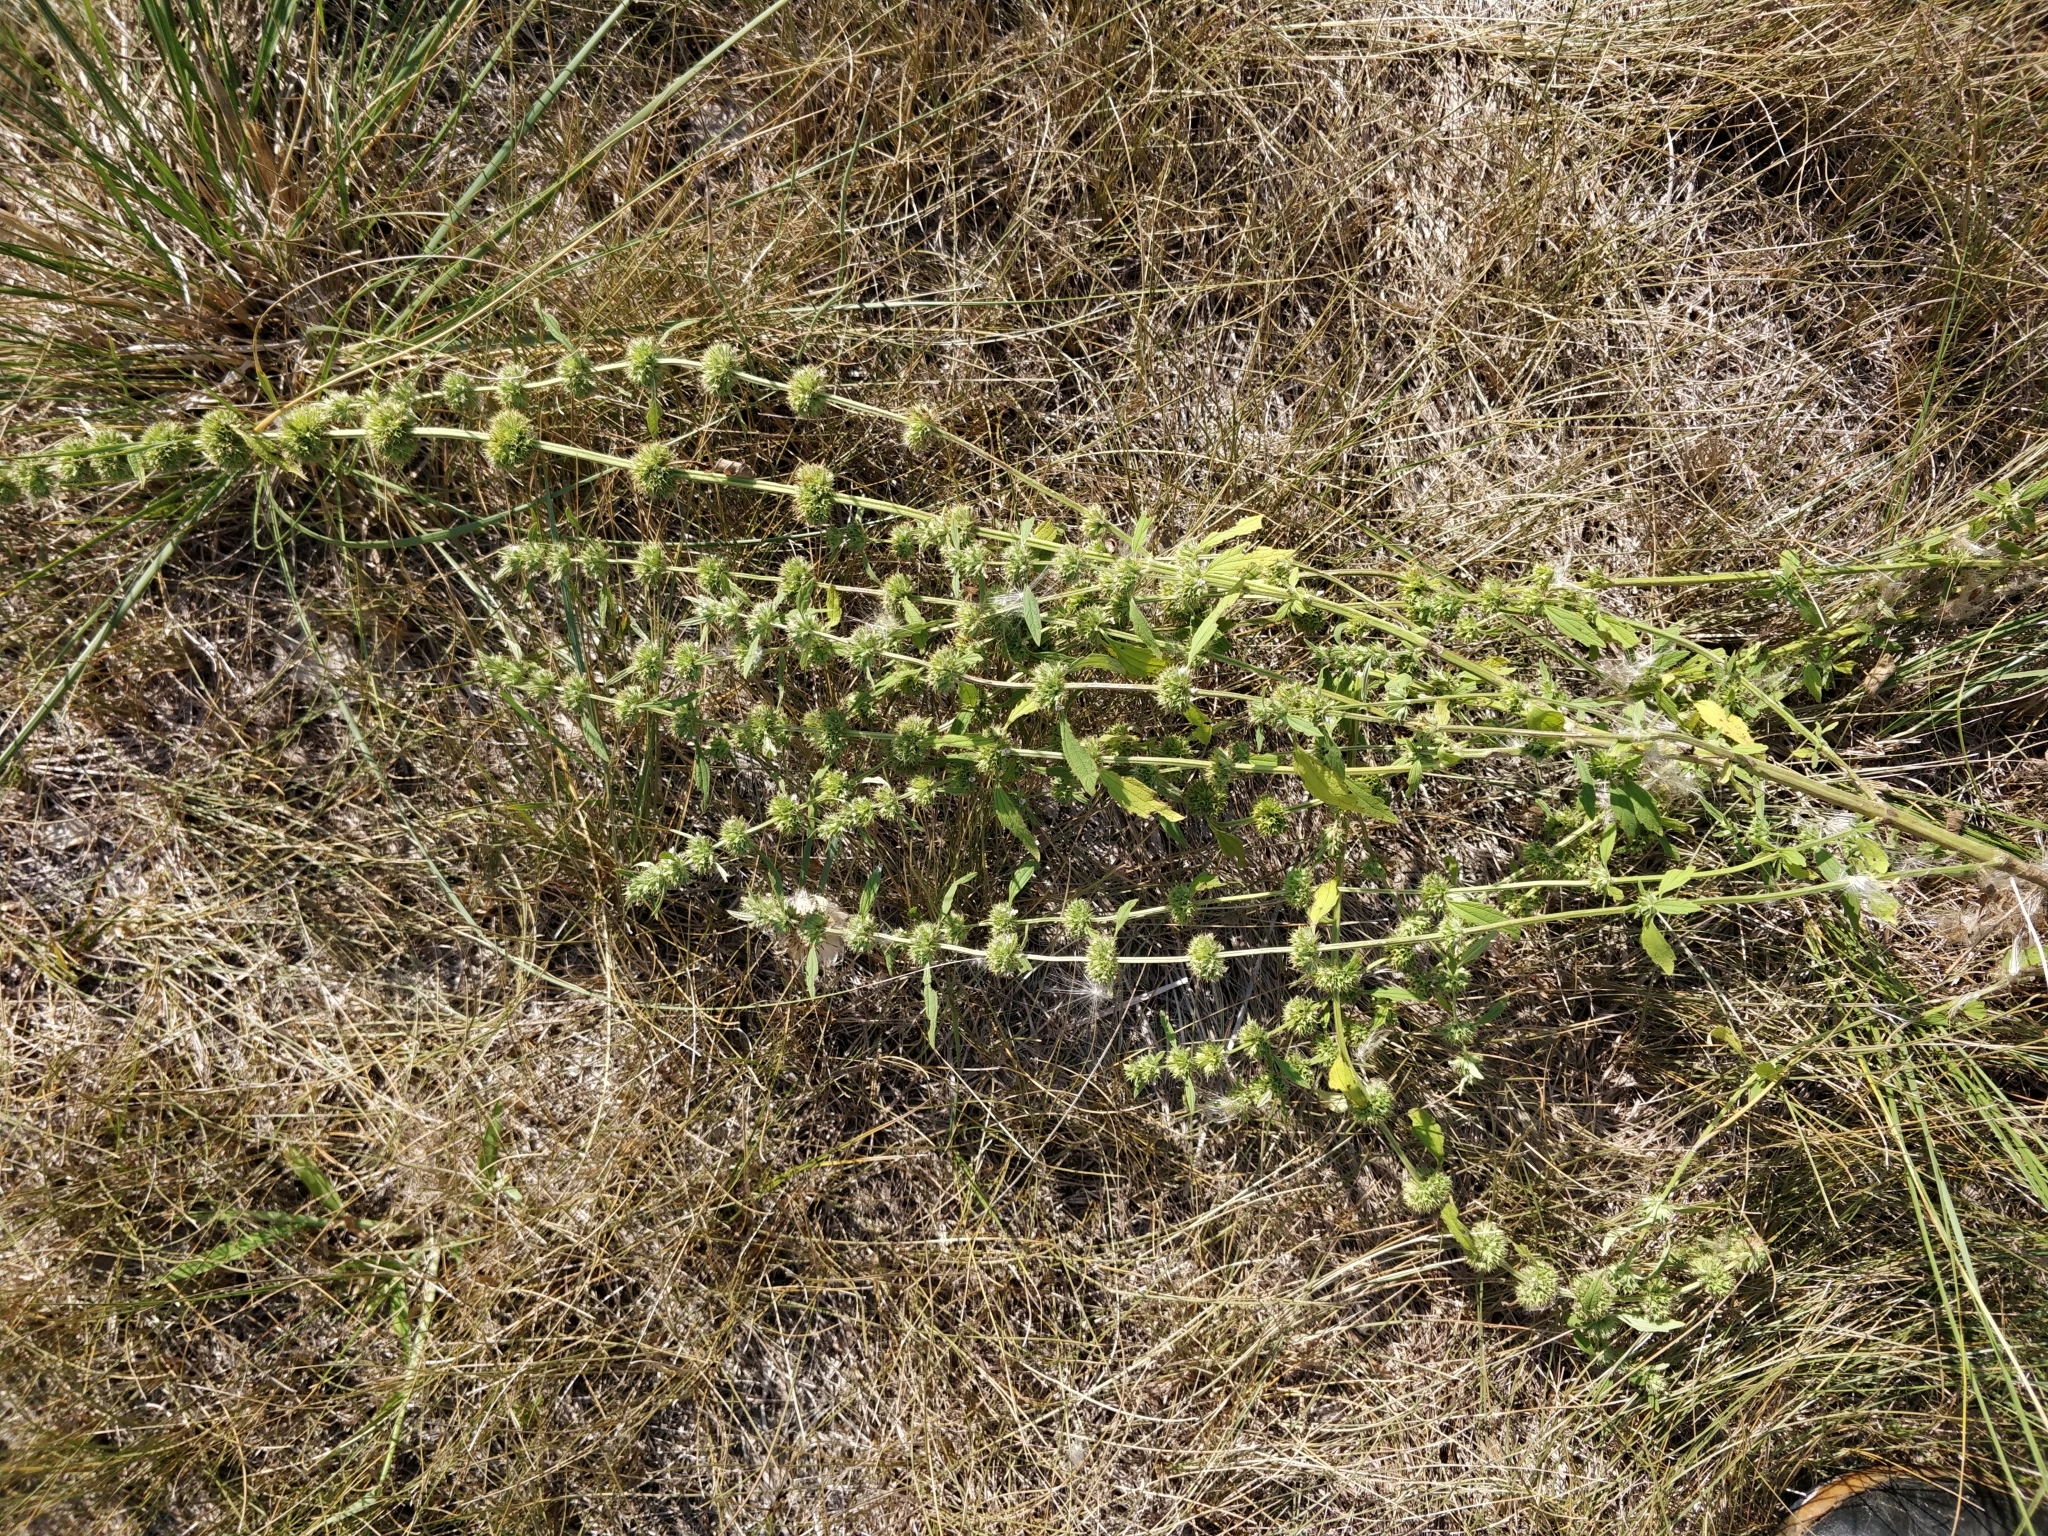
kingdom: Plantae
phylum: Tracheophyta
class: Magnoliopsida
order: Lamiales
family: Lamiaceae
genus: Chaiturus
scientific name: Chaiturus marrubiastrum
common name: Lion's tail
